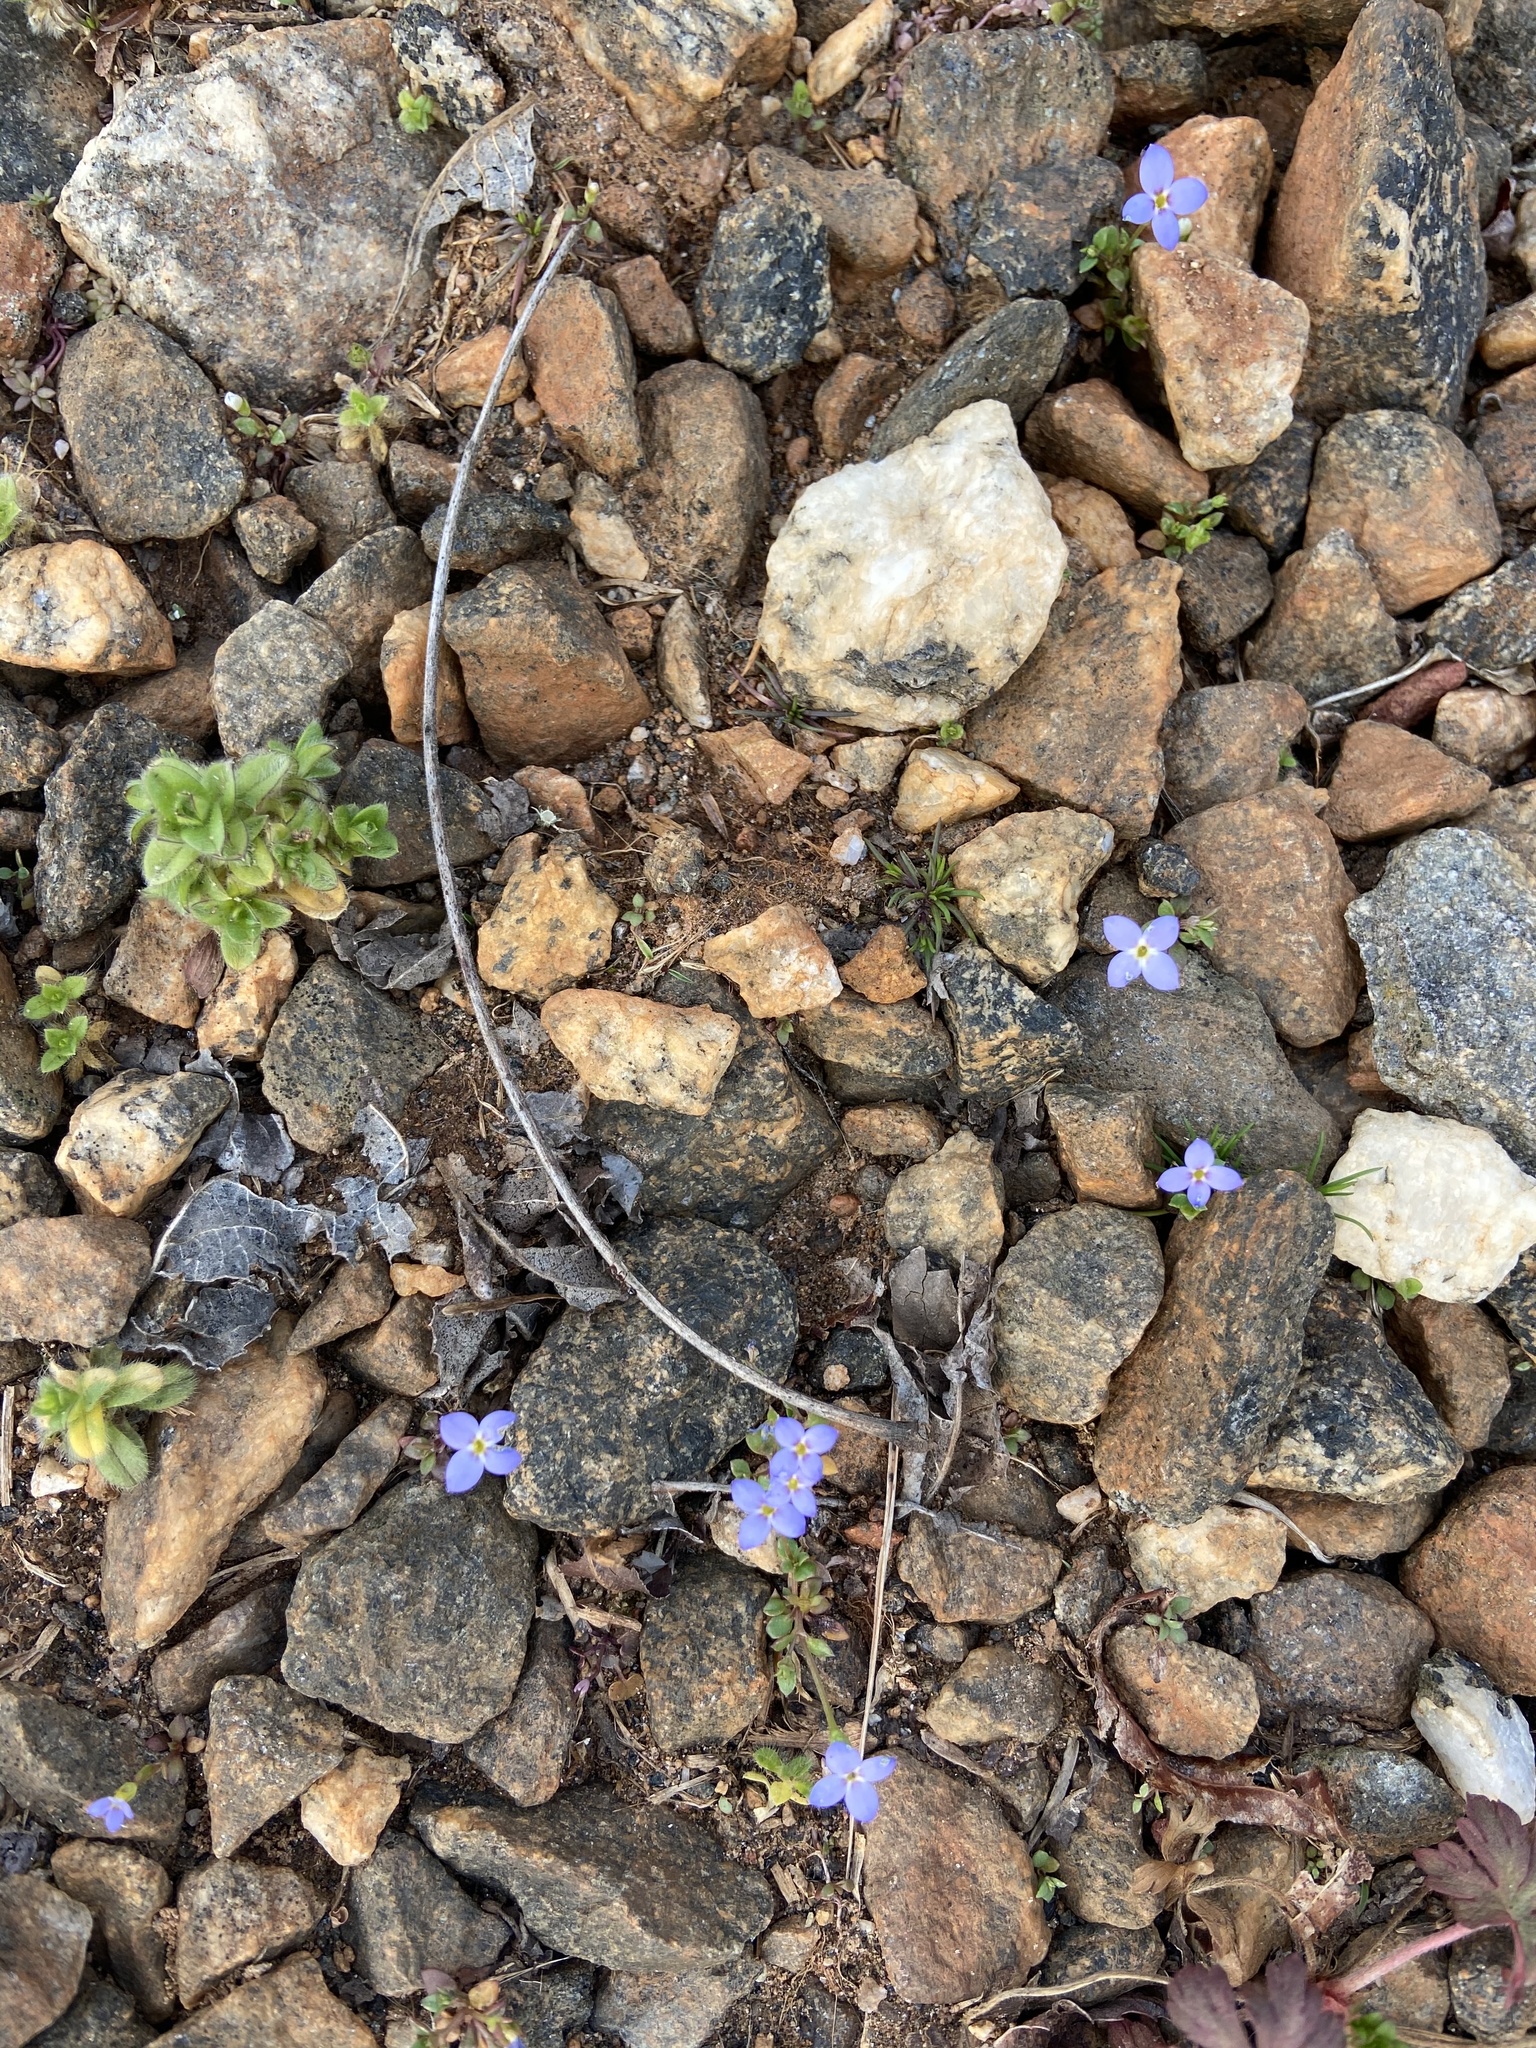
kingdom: Plantae
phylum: Tracheophyta
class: Magnoliopsida
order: Gentianales
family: Rubiaceae
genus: Houstonia
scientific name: Houstonia pusilla
